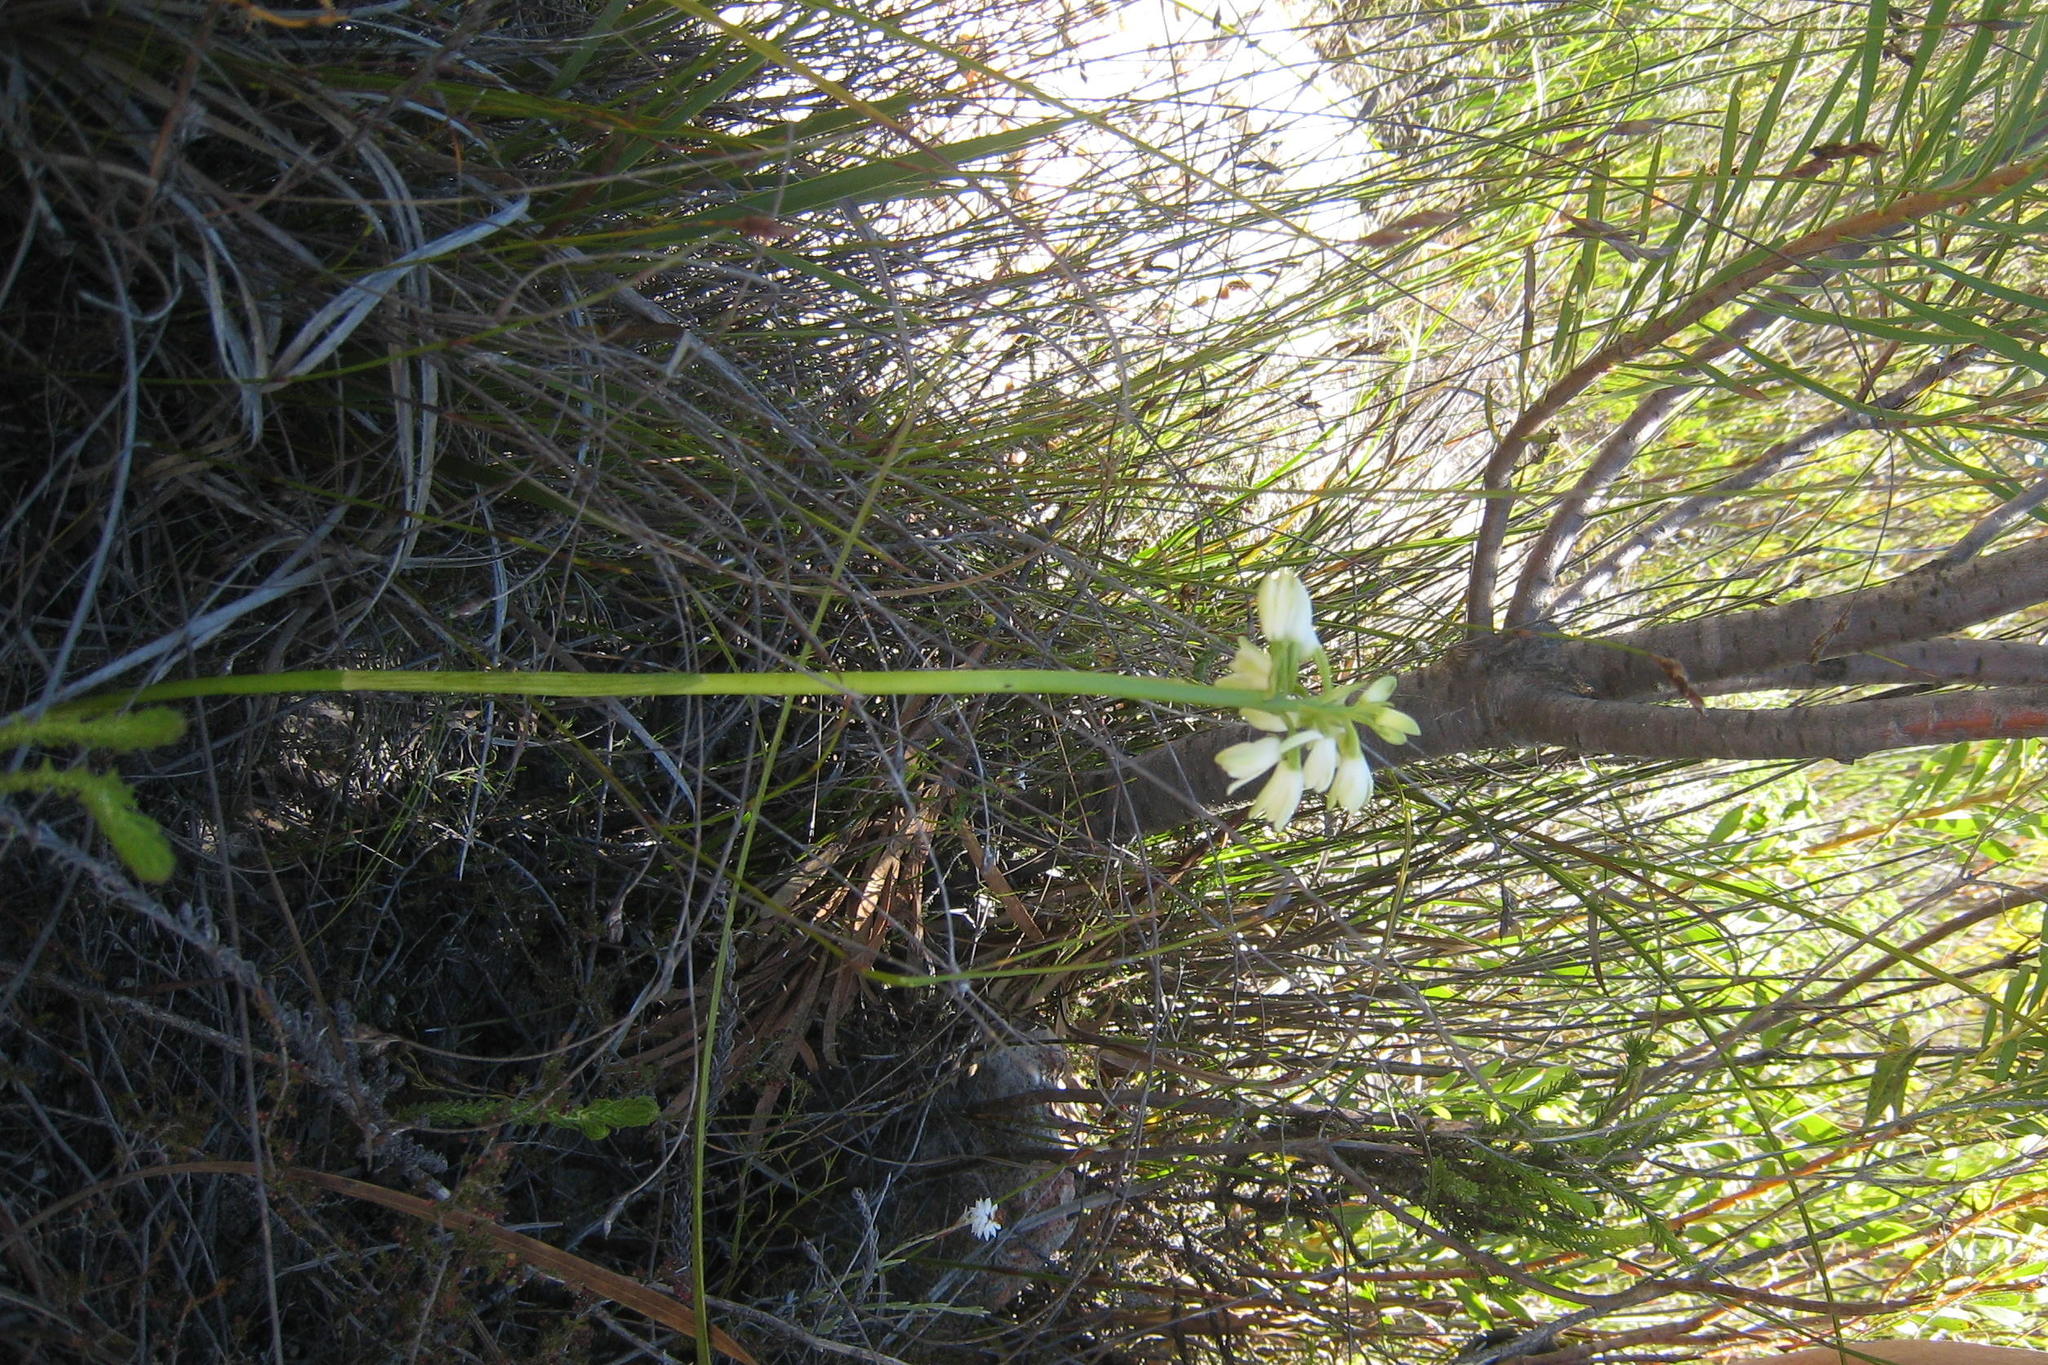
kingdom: Plantae
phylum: Tracheophyta
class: Liliopsida
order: Asparagales
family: Orchidaceae
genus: Eulophia
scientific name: Eulophia aculeata
